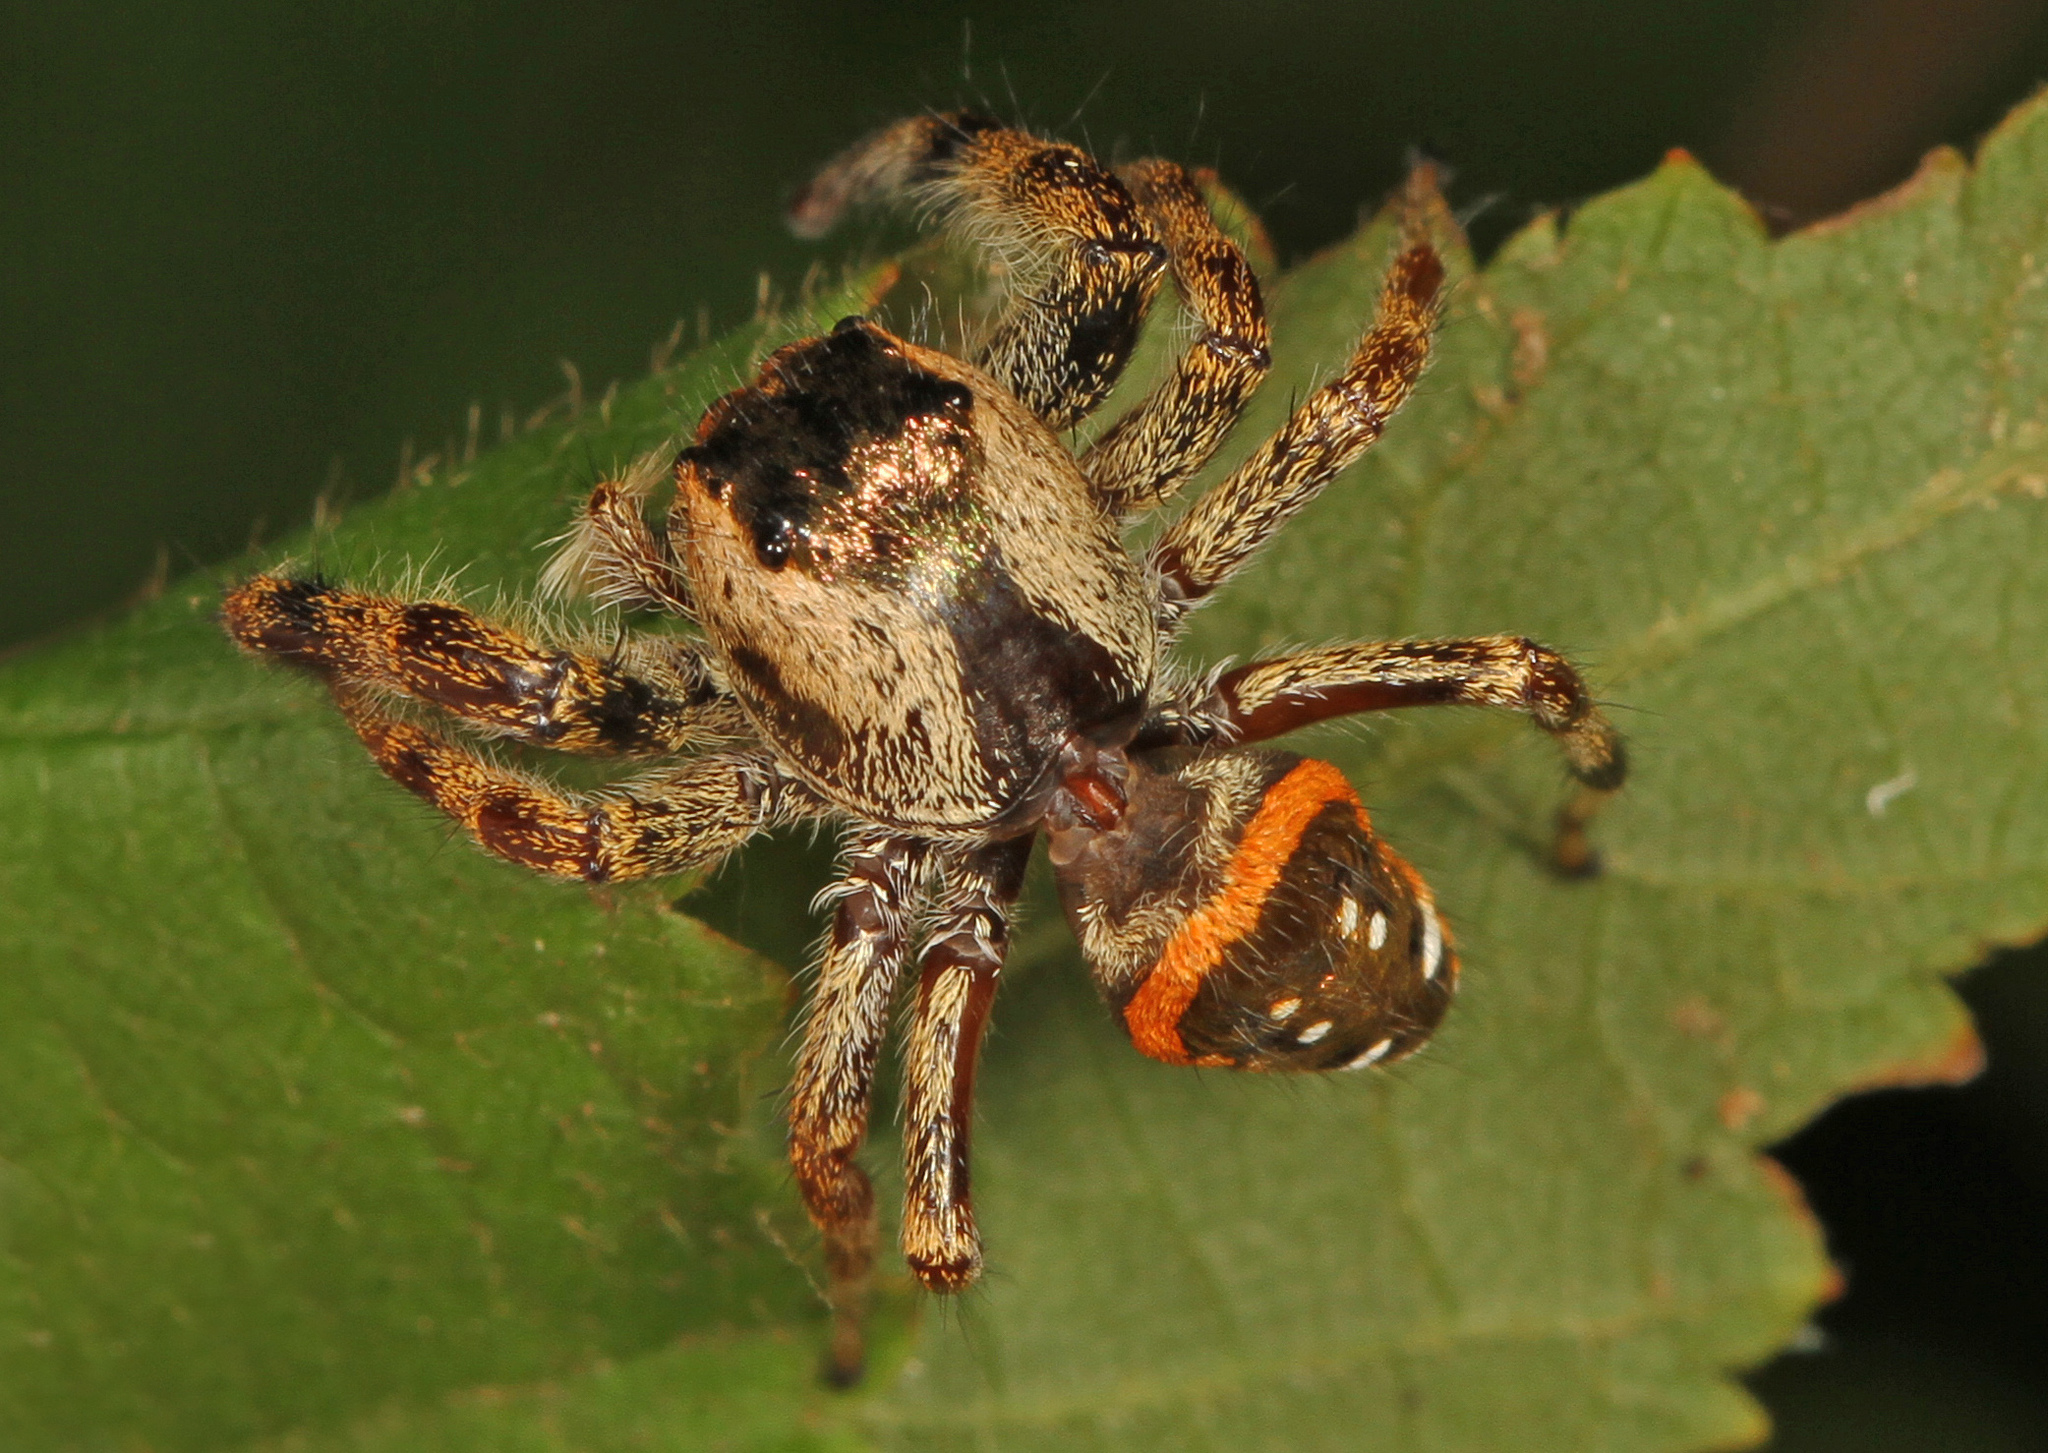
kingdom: Animalia
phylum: Arthropoda
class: Arachnida
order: Araneae
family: Salticidae
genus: Paraphidippus
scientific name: Paraphidippus aurantius
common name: Jumping spiders
